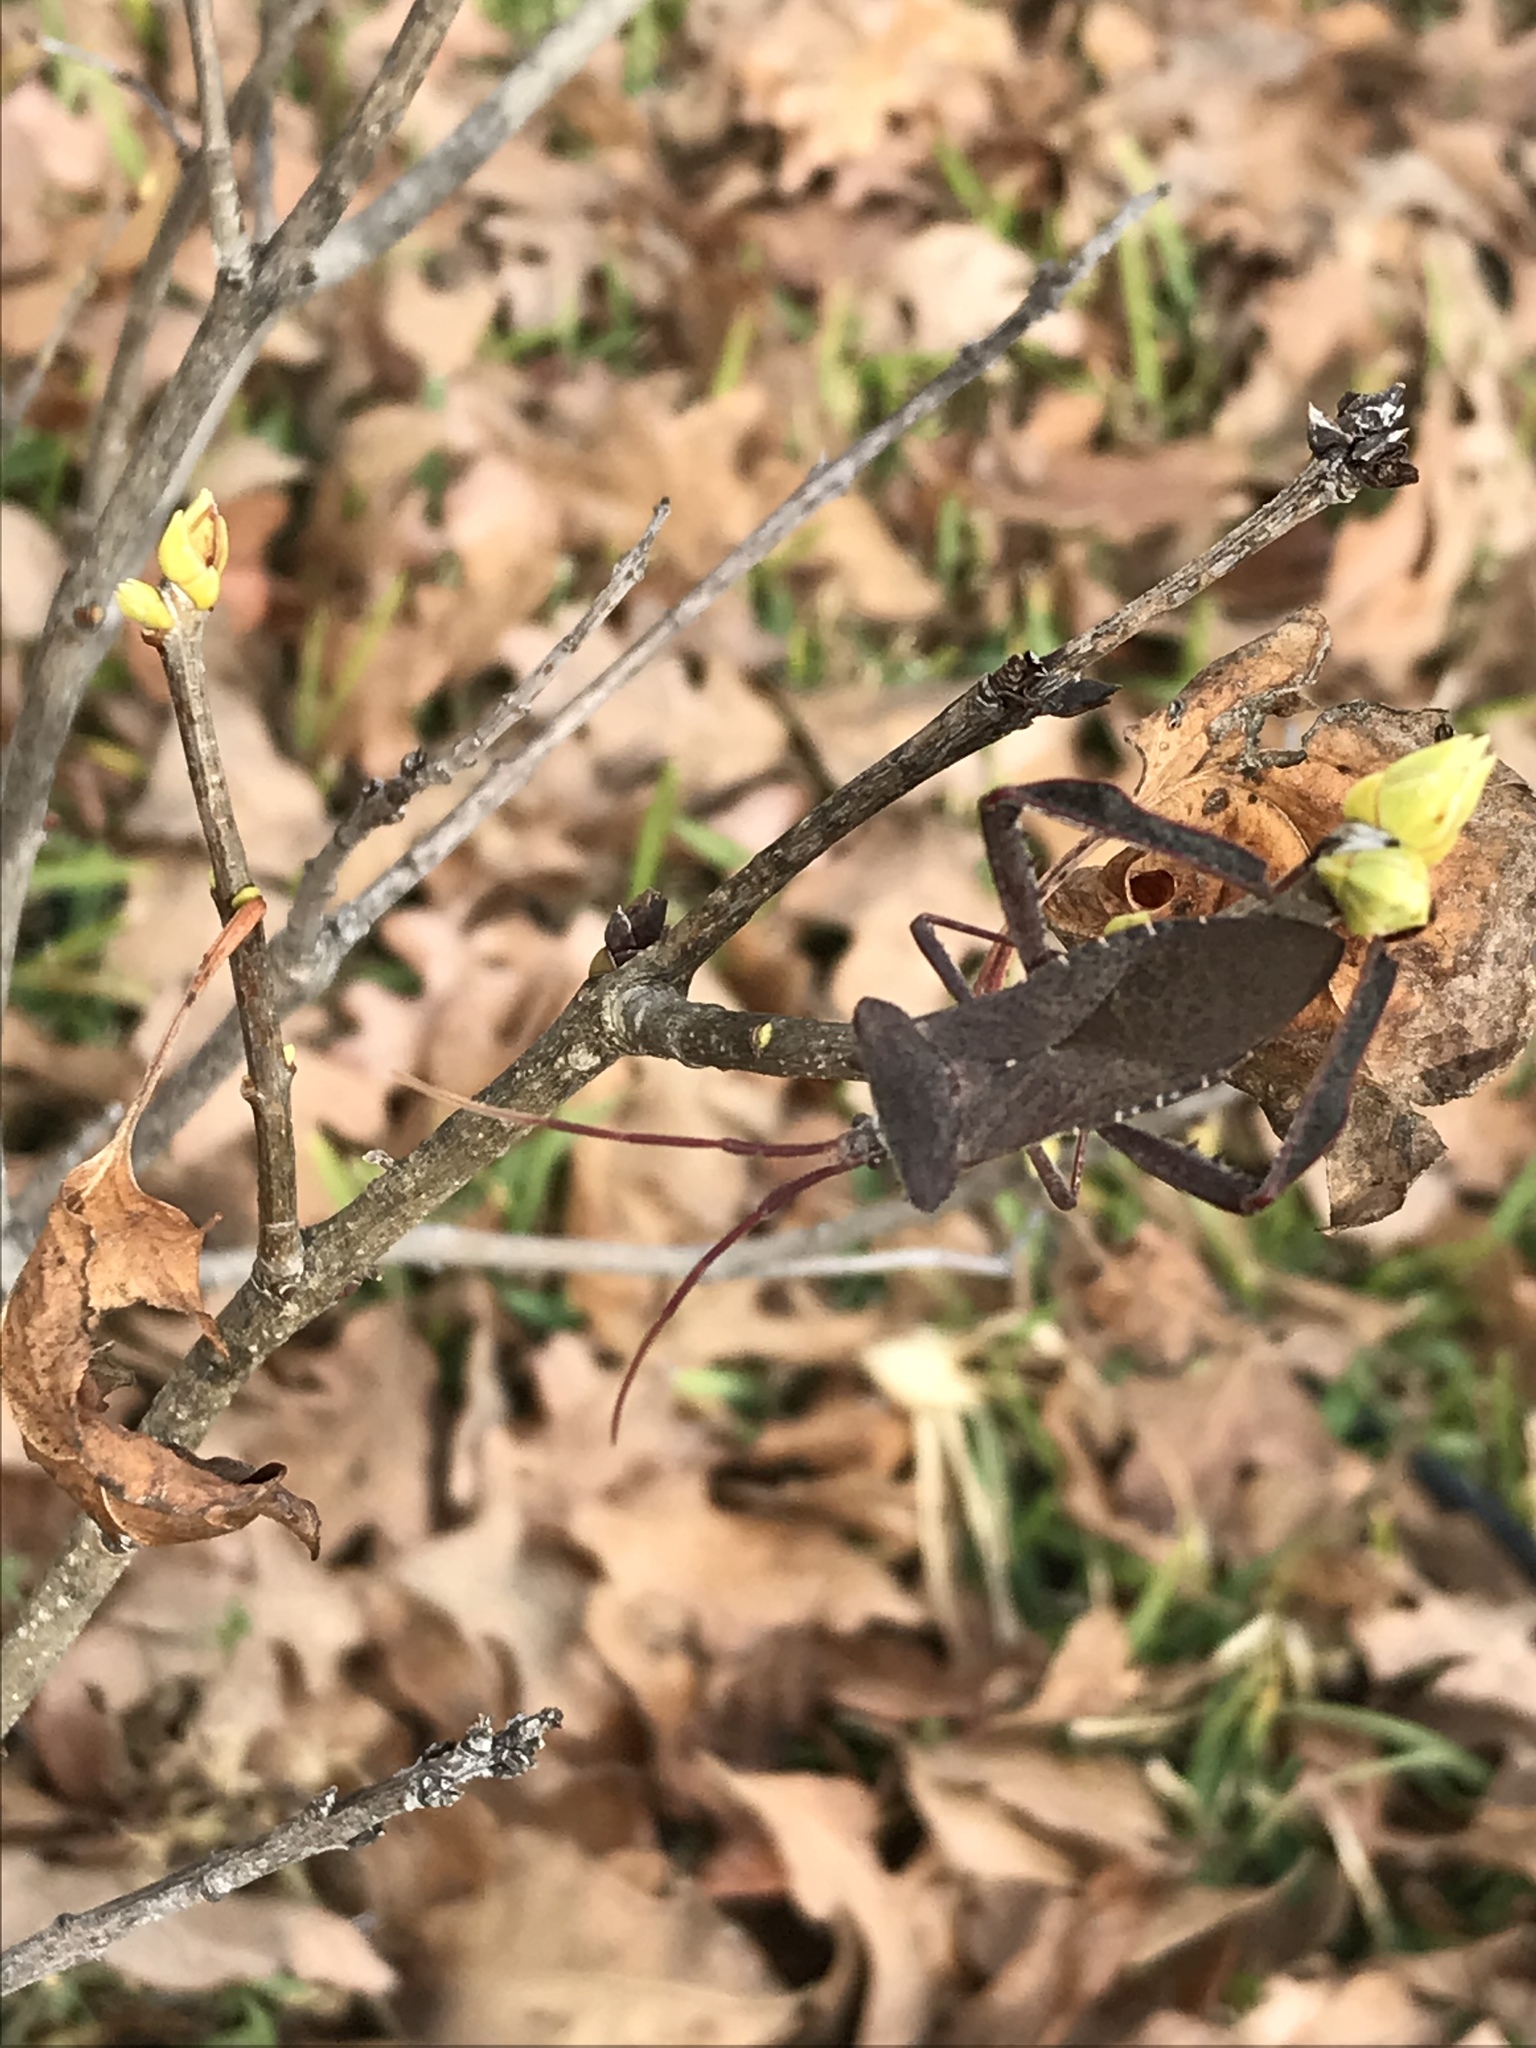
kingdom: Animalia
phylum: Arthropoda
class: Insecta
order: Hemiptera
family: Coreidae
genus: Acanthocephala
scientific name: Acanthocephala declivis
